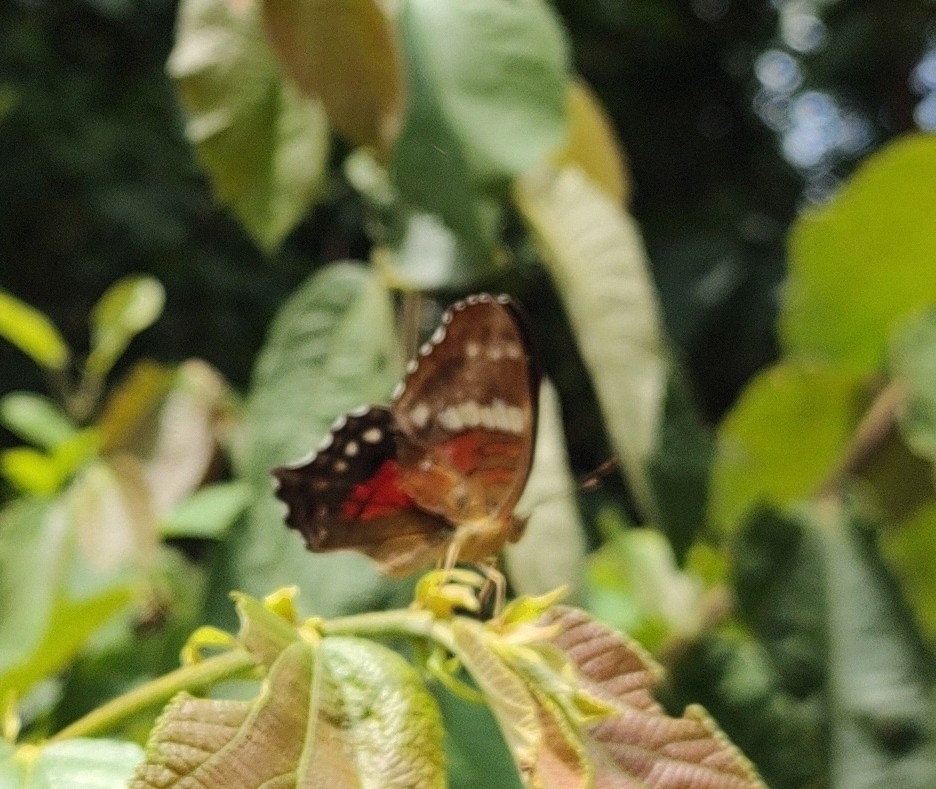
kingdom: Animalia
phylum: Arthropoda
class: Insecta
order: Lepidoptera
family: Nymphalidae
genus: Anartia
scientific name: Anartia amathea
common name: Red peacock
